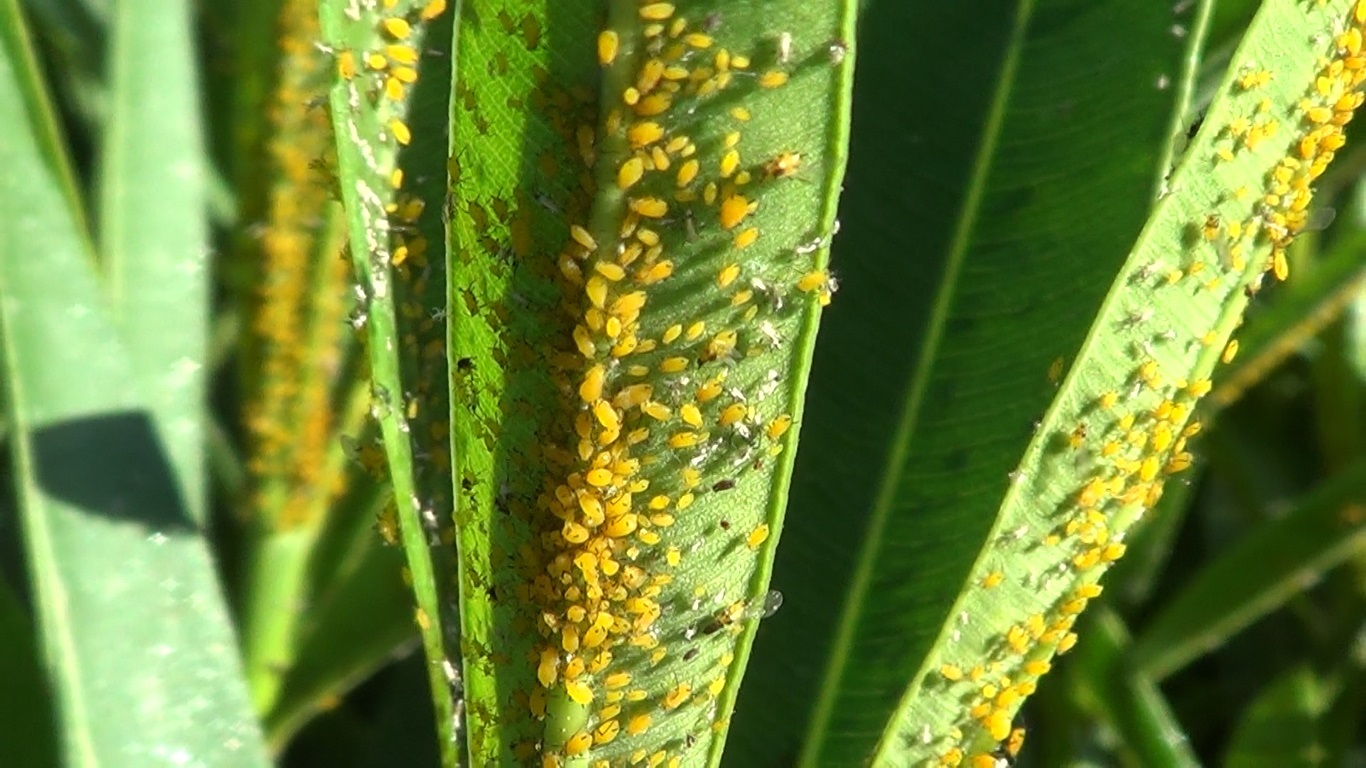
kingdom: Animalia
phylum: Arthropoda
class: Insecta
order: Hemiptera
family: Aphididae
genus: Aphis
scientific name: Aphis nerii
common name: Oleander aphid
